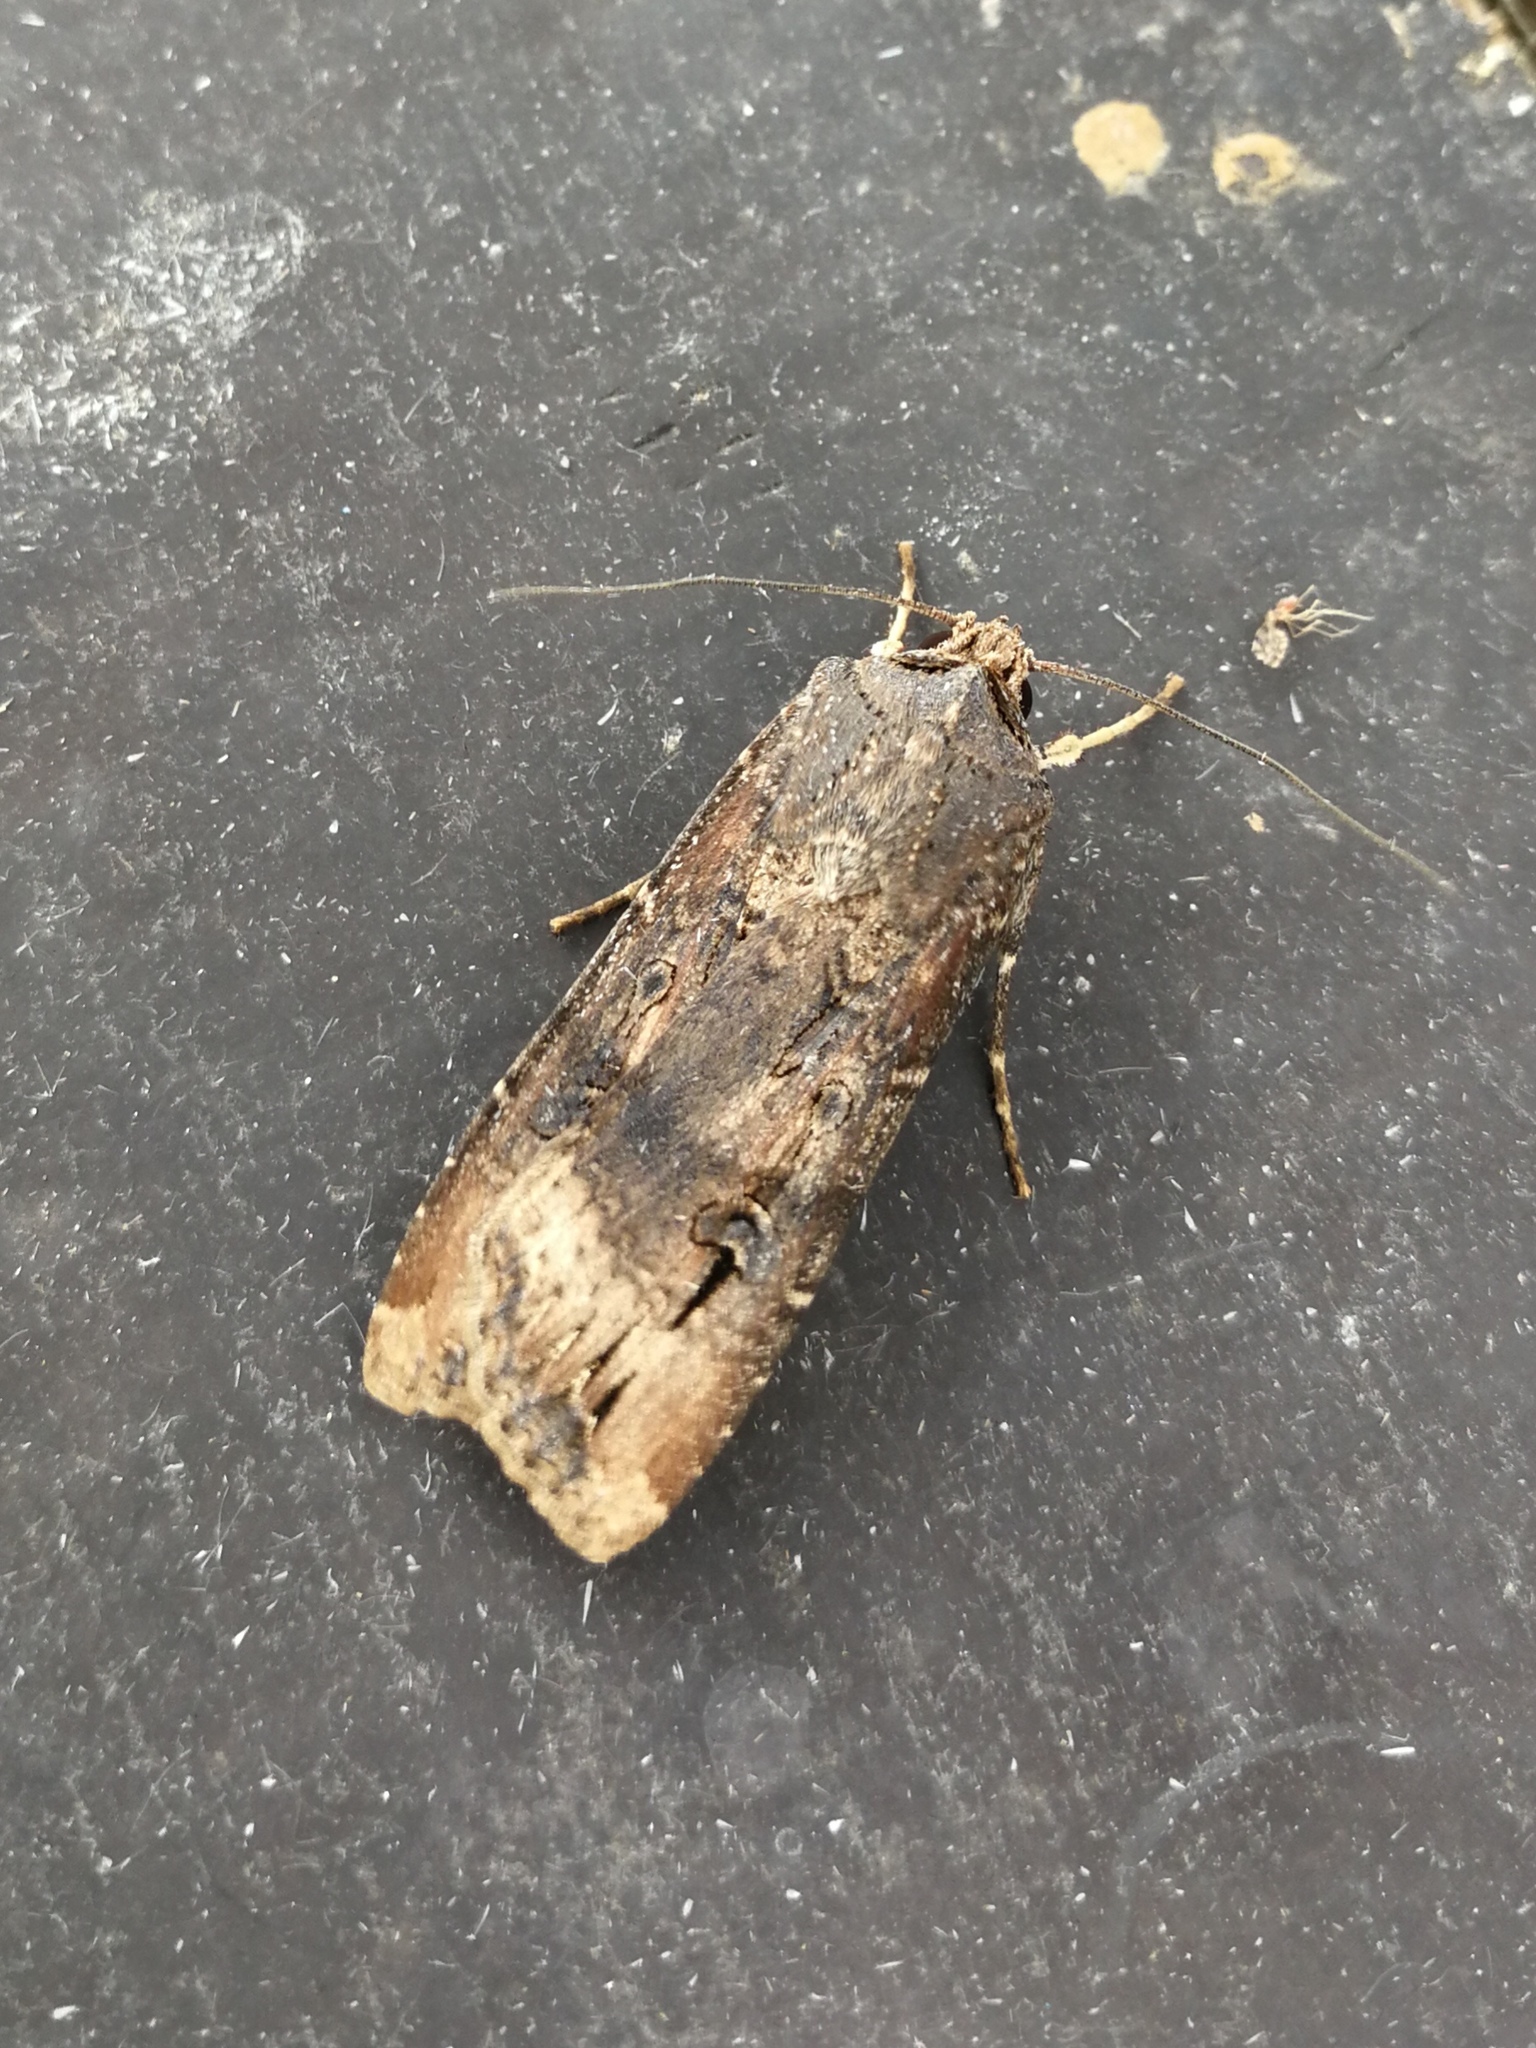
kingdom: Animalia
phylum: Arthropoda
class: Insecta
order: Lepidoptera
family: Noctuidae
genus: Agrotis
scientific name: Agrotis ipsilon
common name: Dark sword-grass
